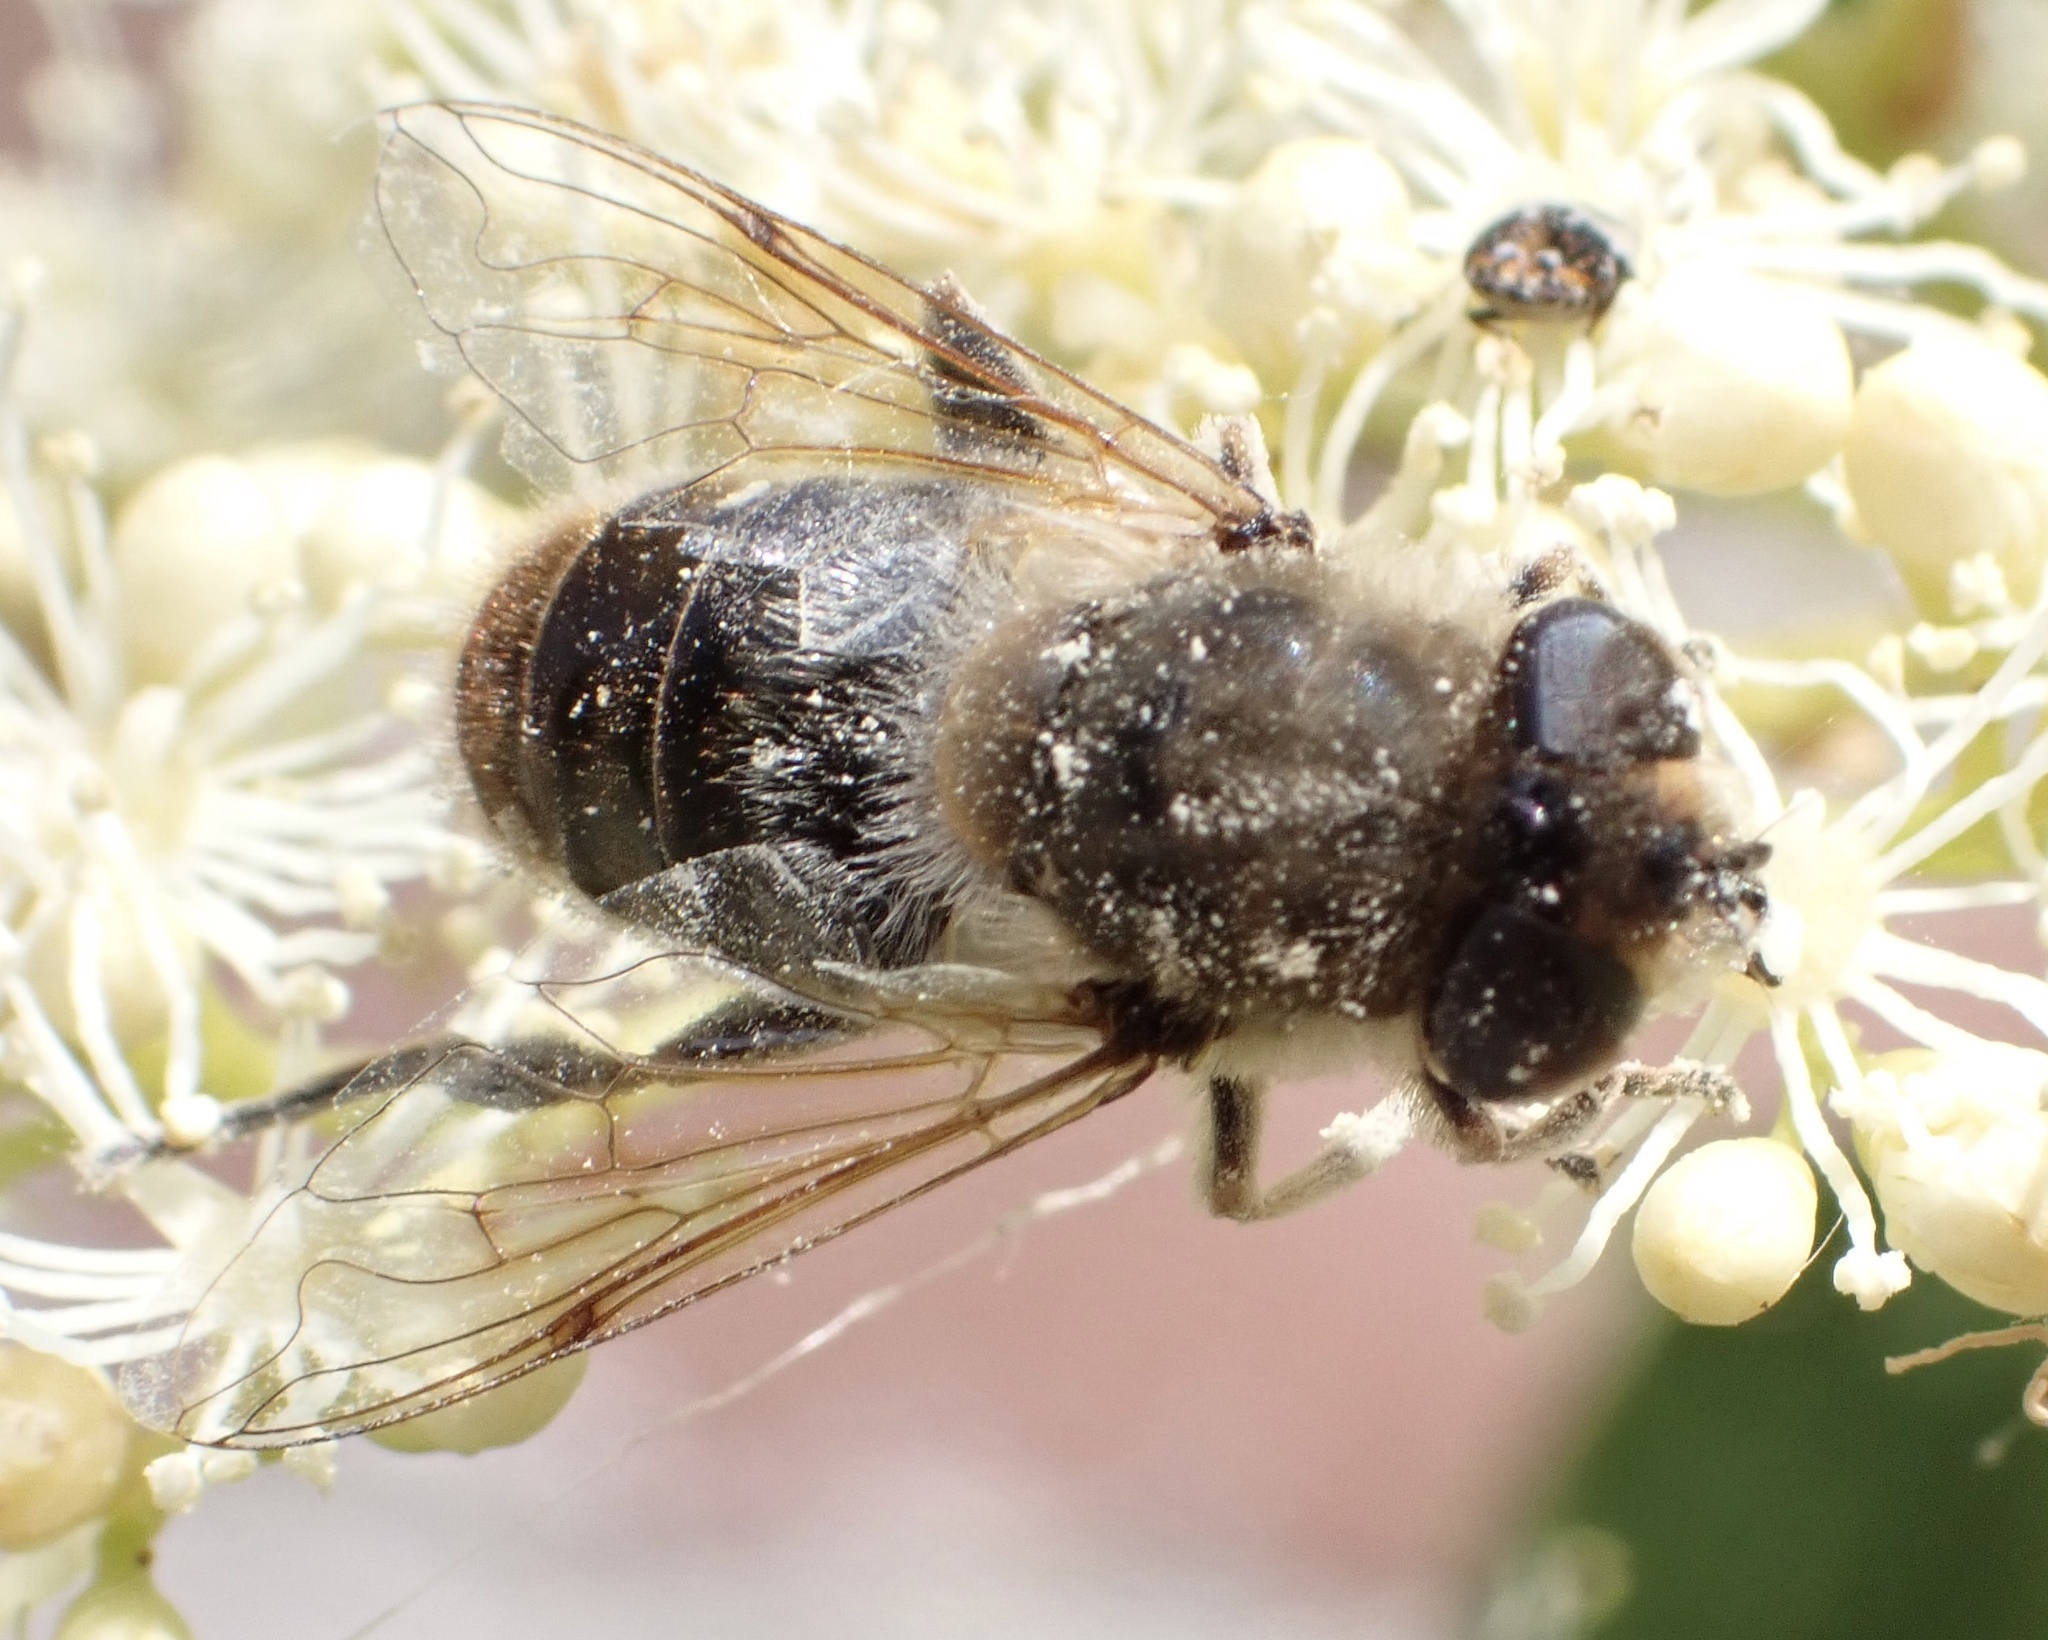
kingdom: Animalia
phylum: Arthropoda
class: Insecta
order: Diptera
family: Syrphidae
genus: Eristalis
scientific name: Eristalis tenax
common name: Drone fly
